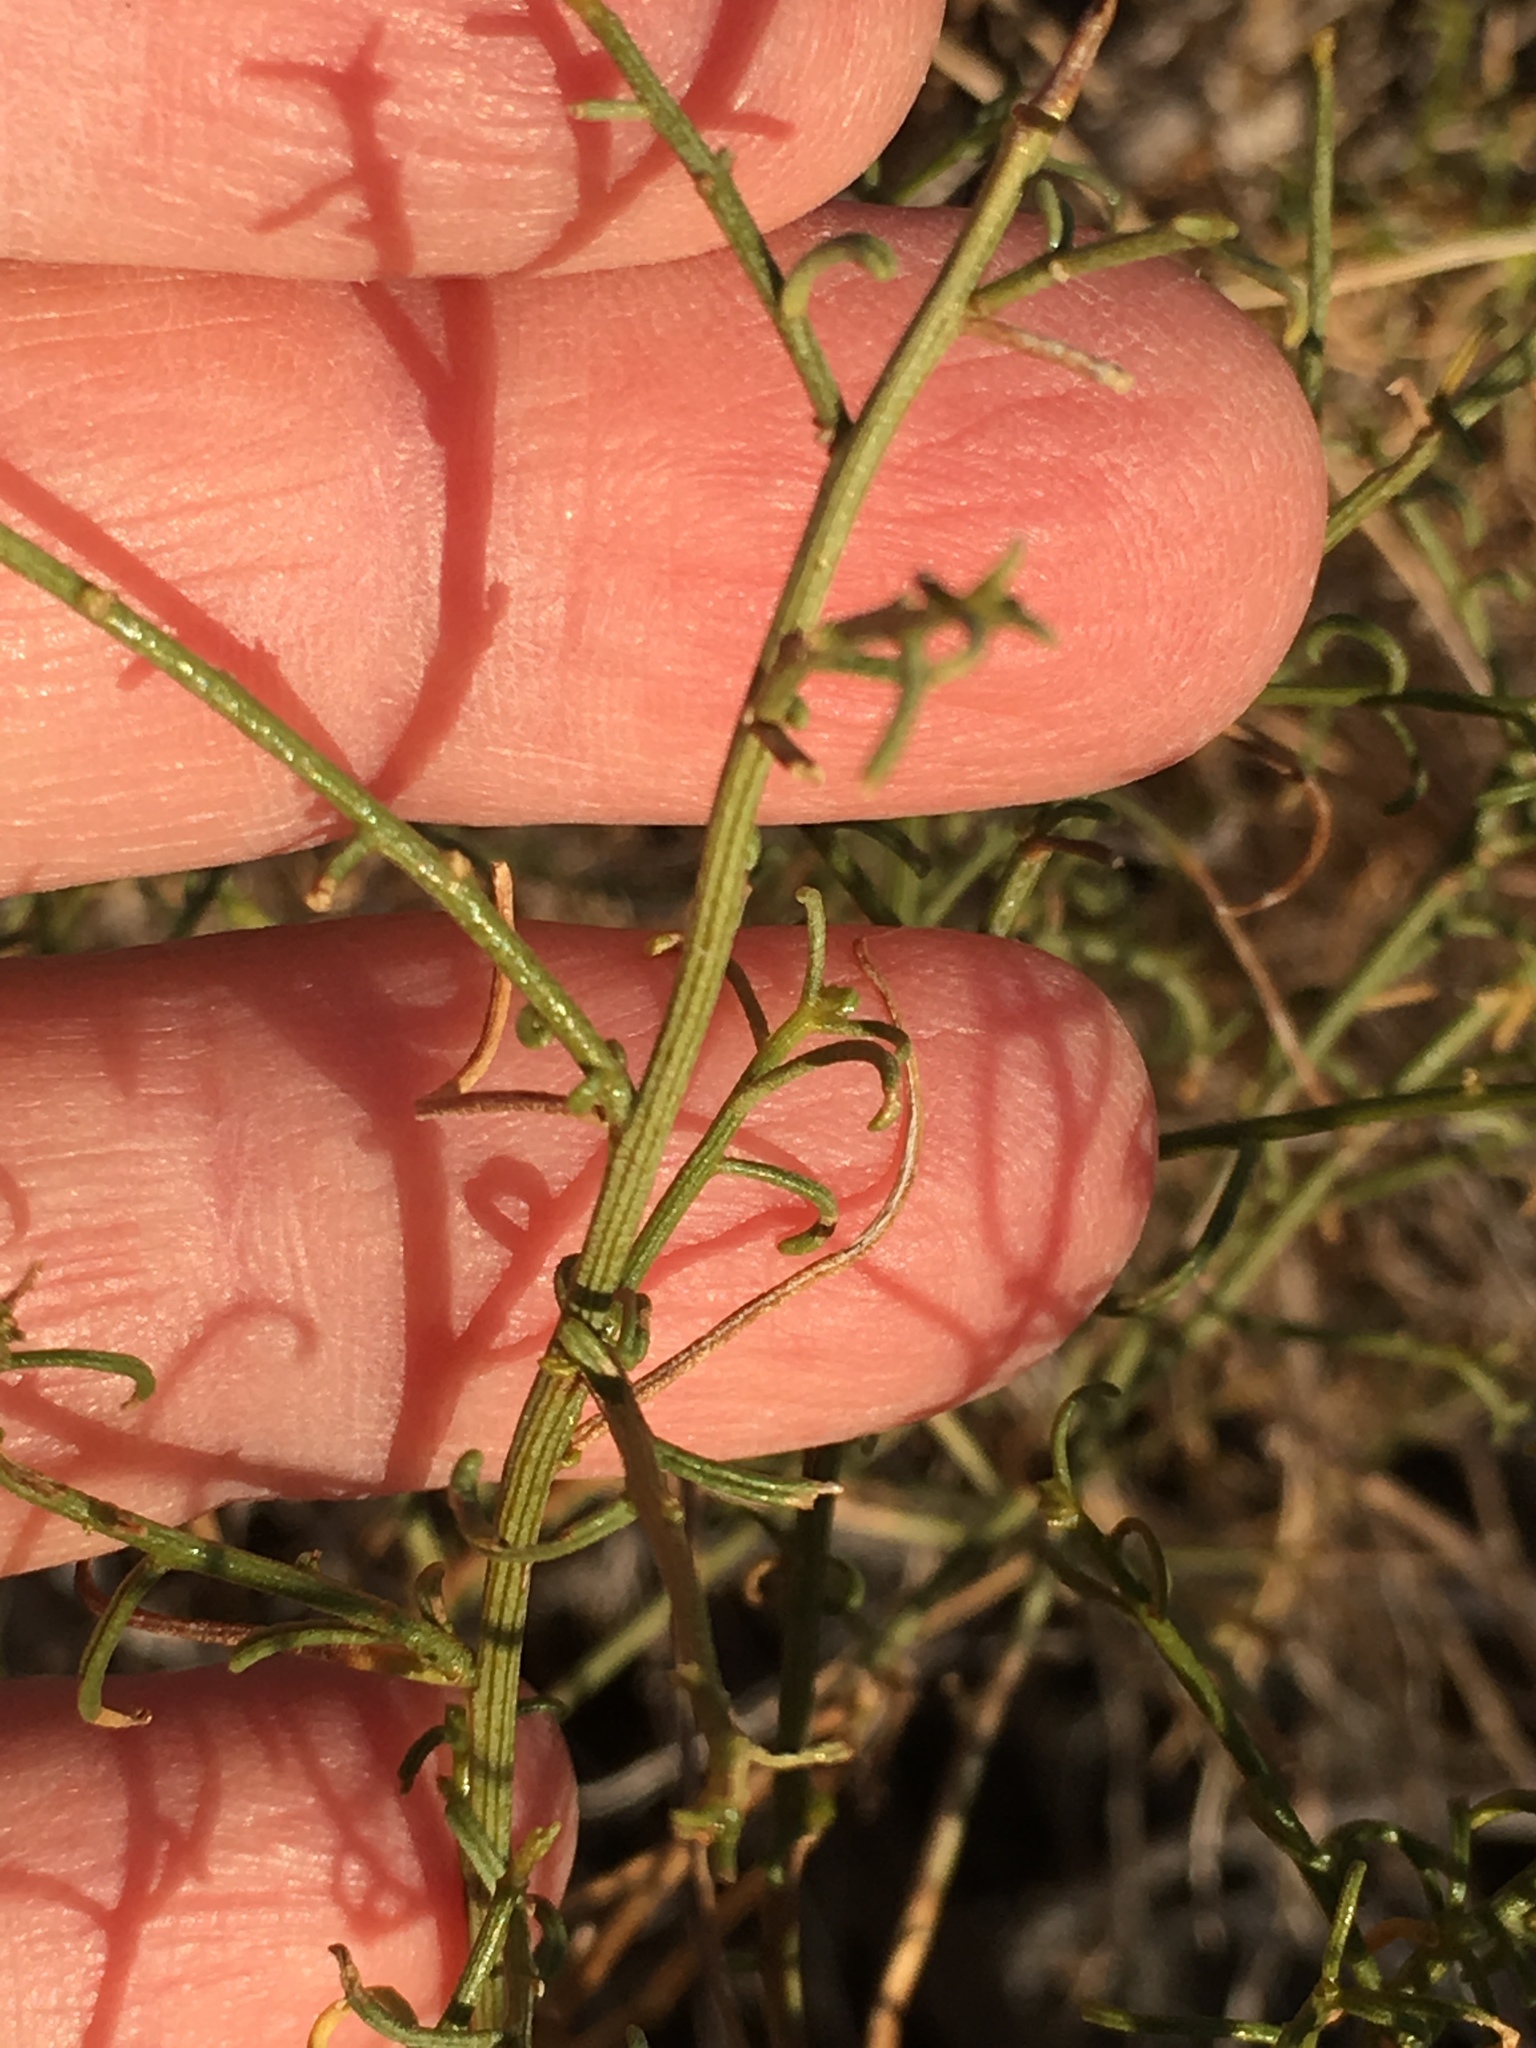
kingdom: Plantae
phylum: Tracheophyta
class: Magnoliopsida
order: Asterales
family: Asteraceae
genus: Ambrosia
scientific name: Ambrosia salsola
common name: Burrobrush
